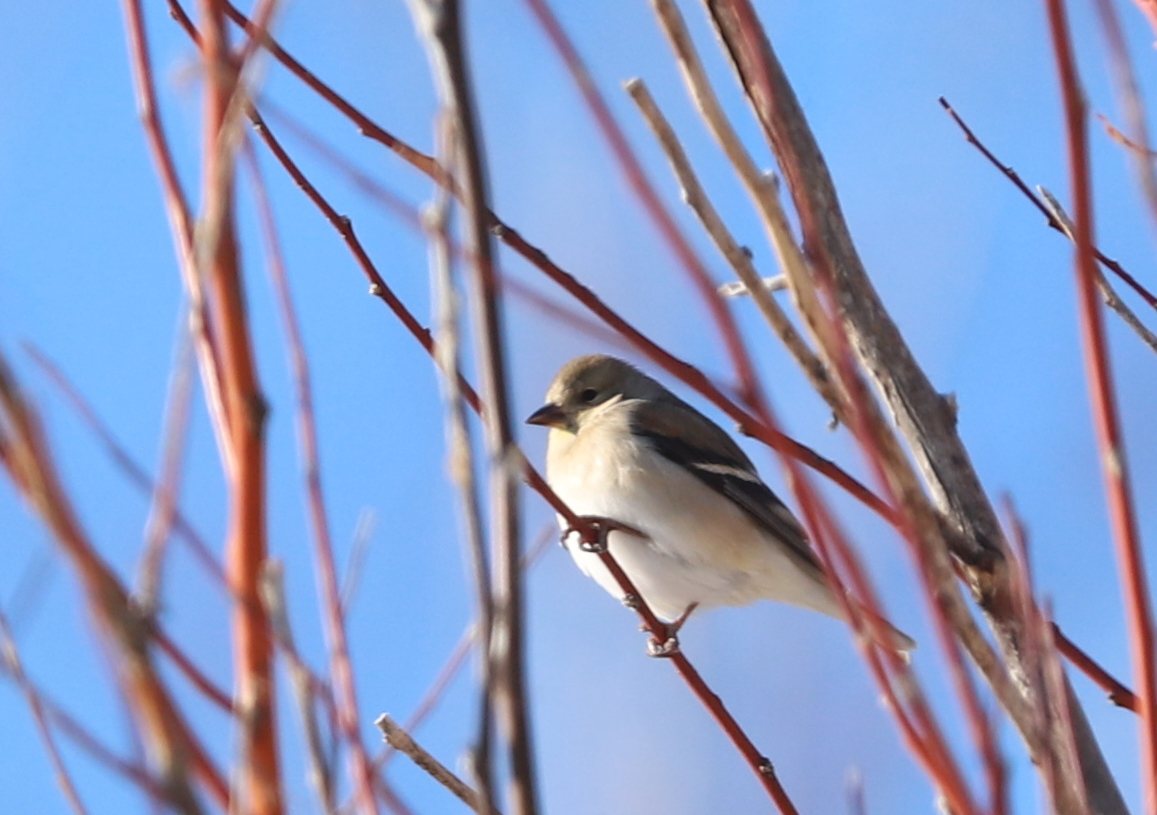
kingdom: Animalia
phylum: Chordata
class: Aves
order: Passeriformes
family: Fringillidae
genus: Spinus
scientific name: Spinus tristis
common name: American goldfinch
